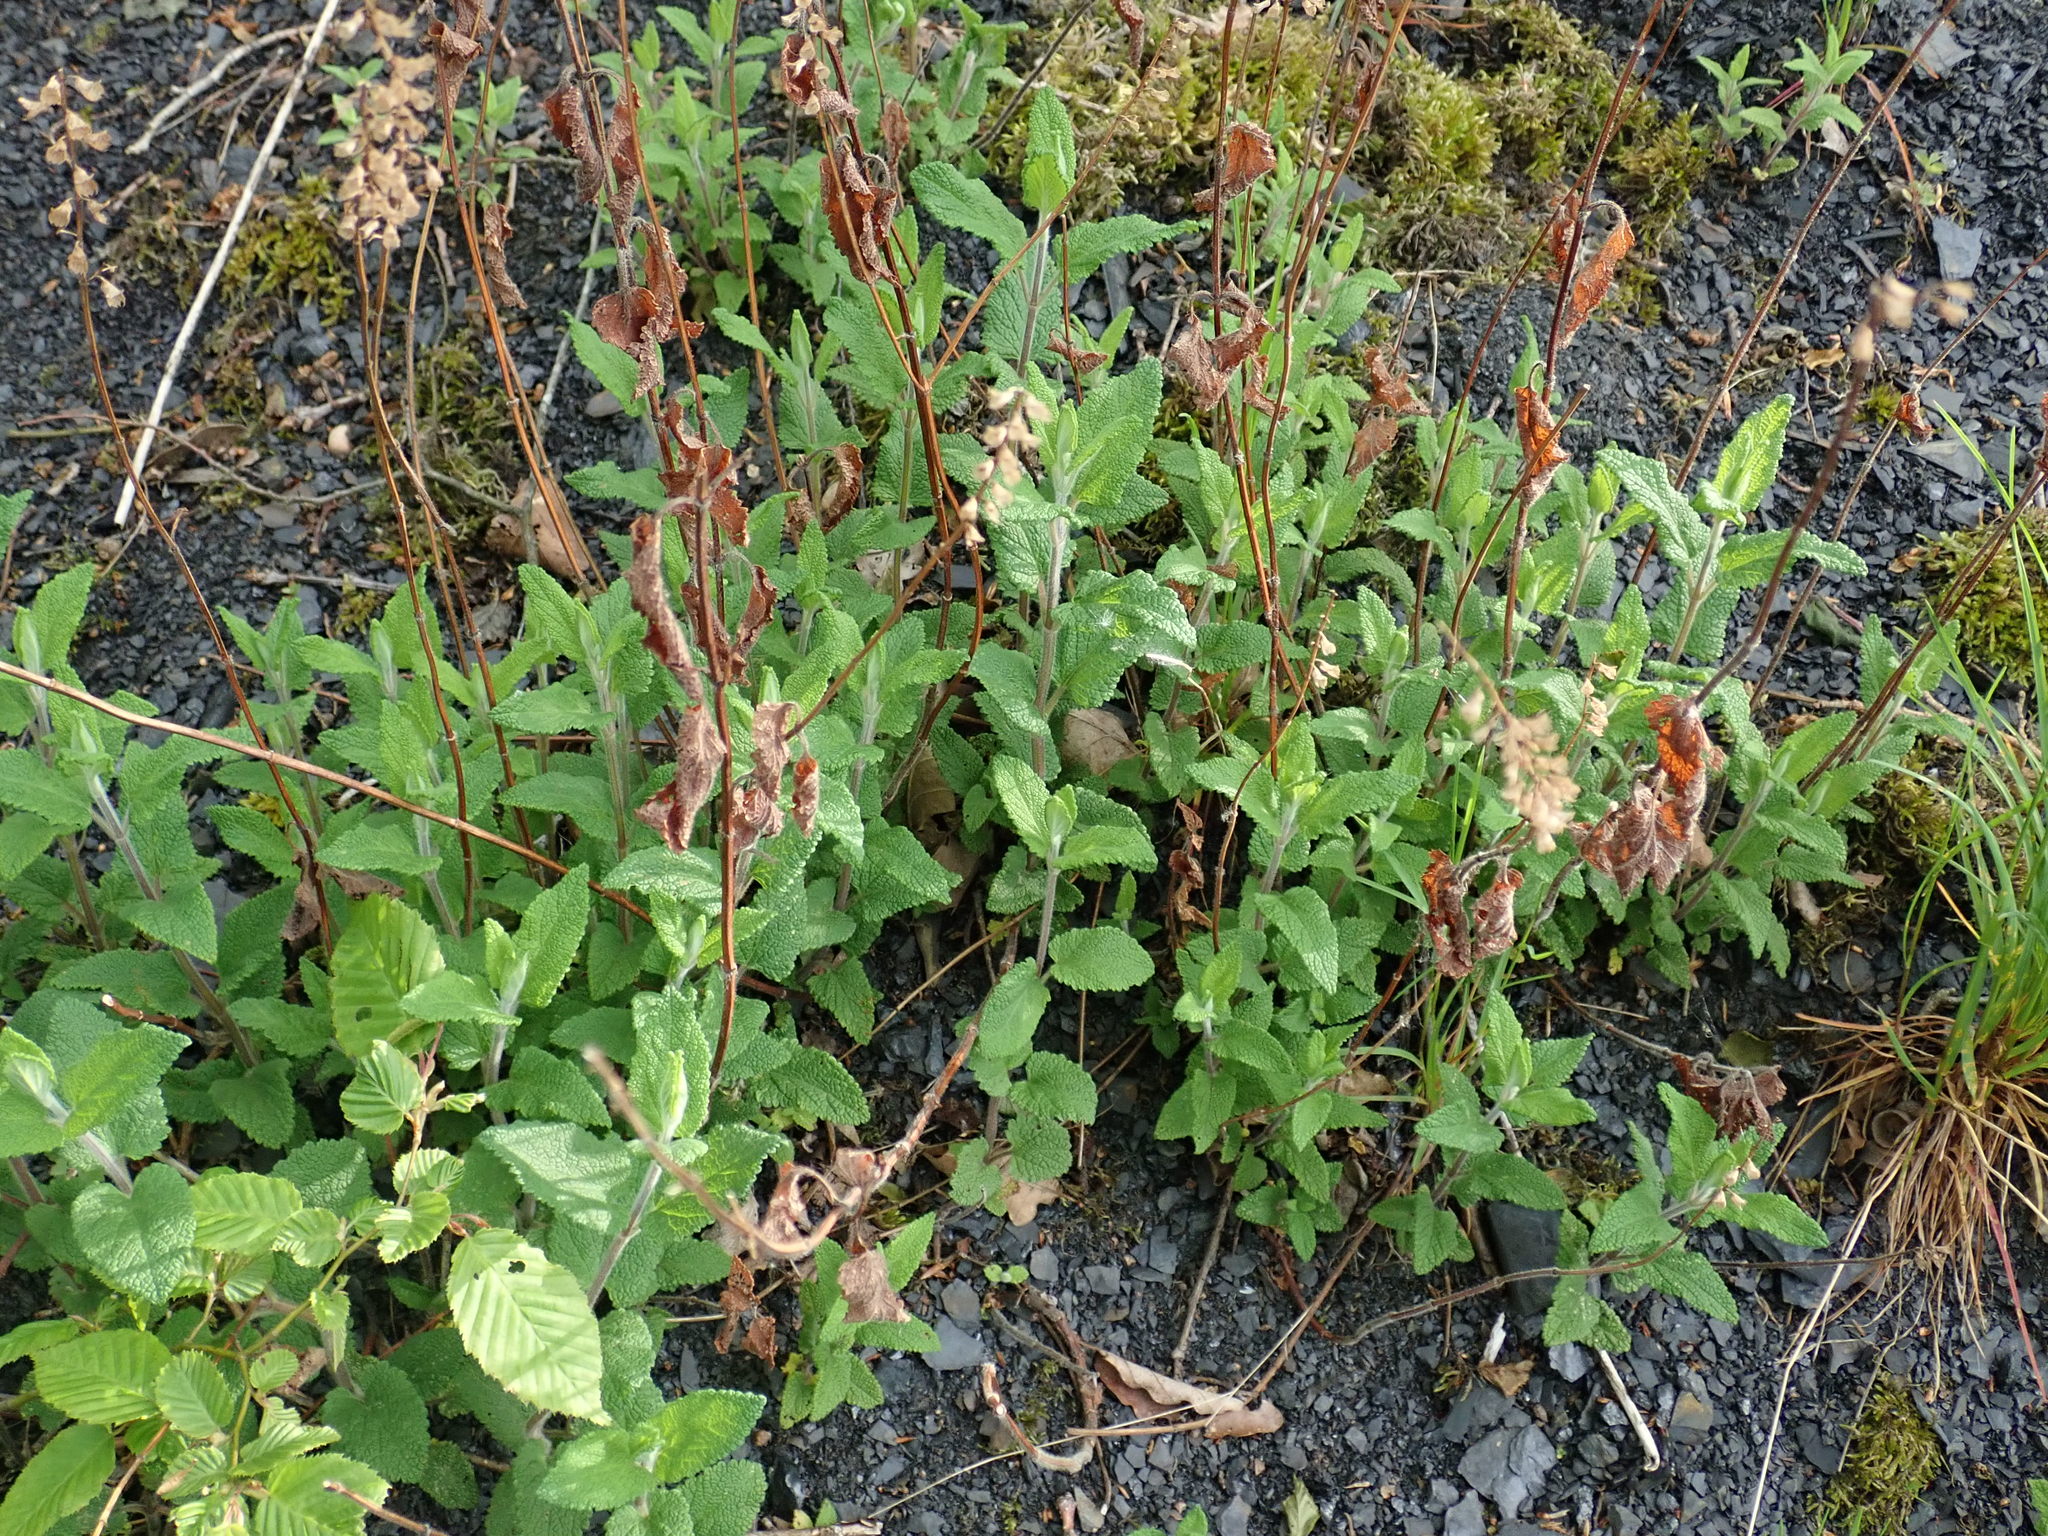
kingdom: Plantae
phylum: Tracheophyta
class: Magnoliopsida
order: Lamiales
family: Lamiaceae
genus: Teucrium
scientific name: Teucrium scorodonia
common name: Woodland germander
